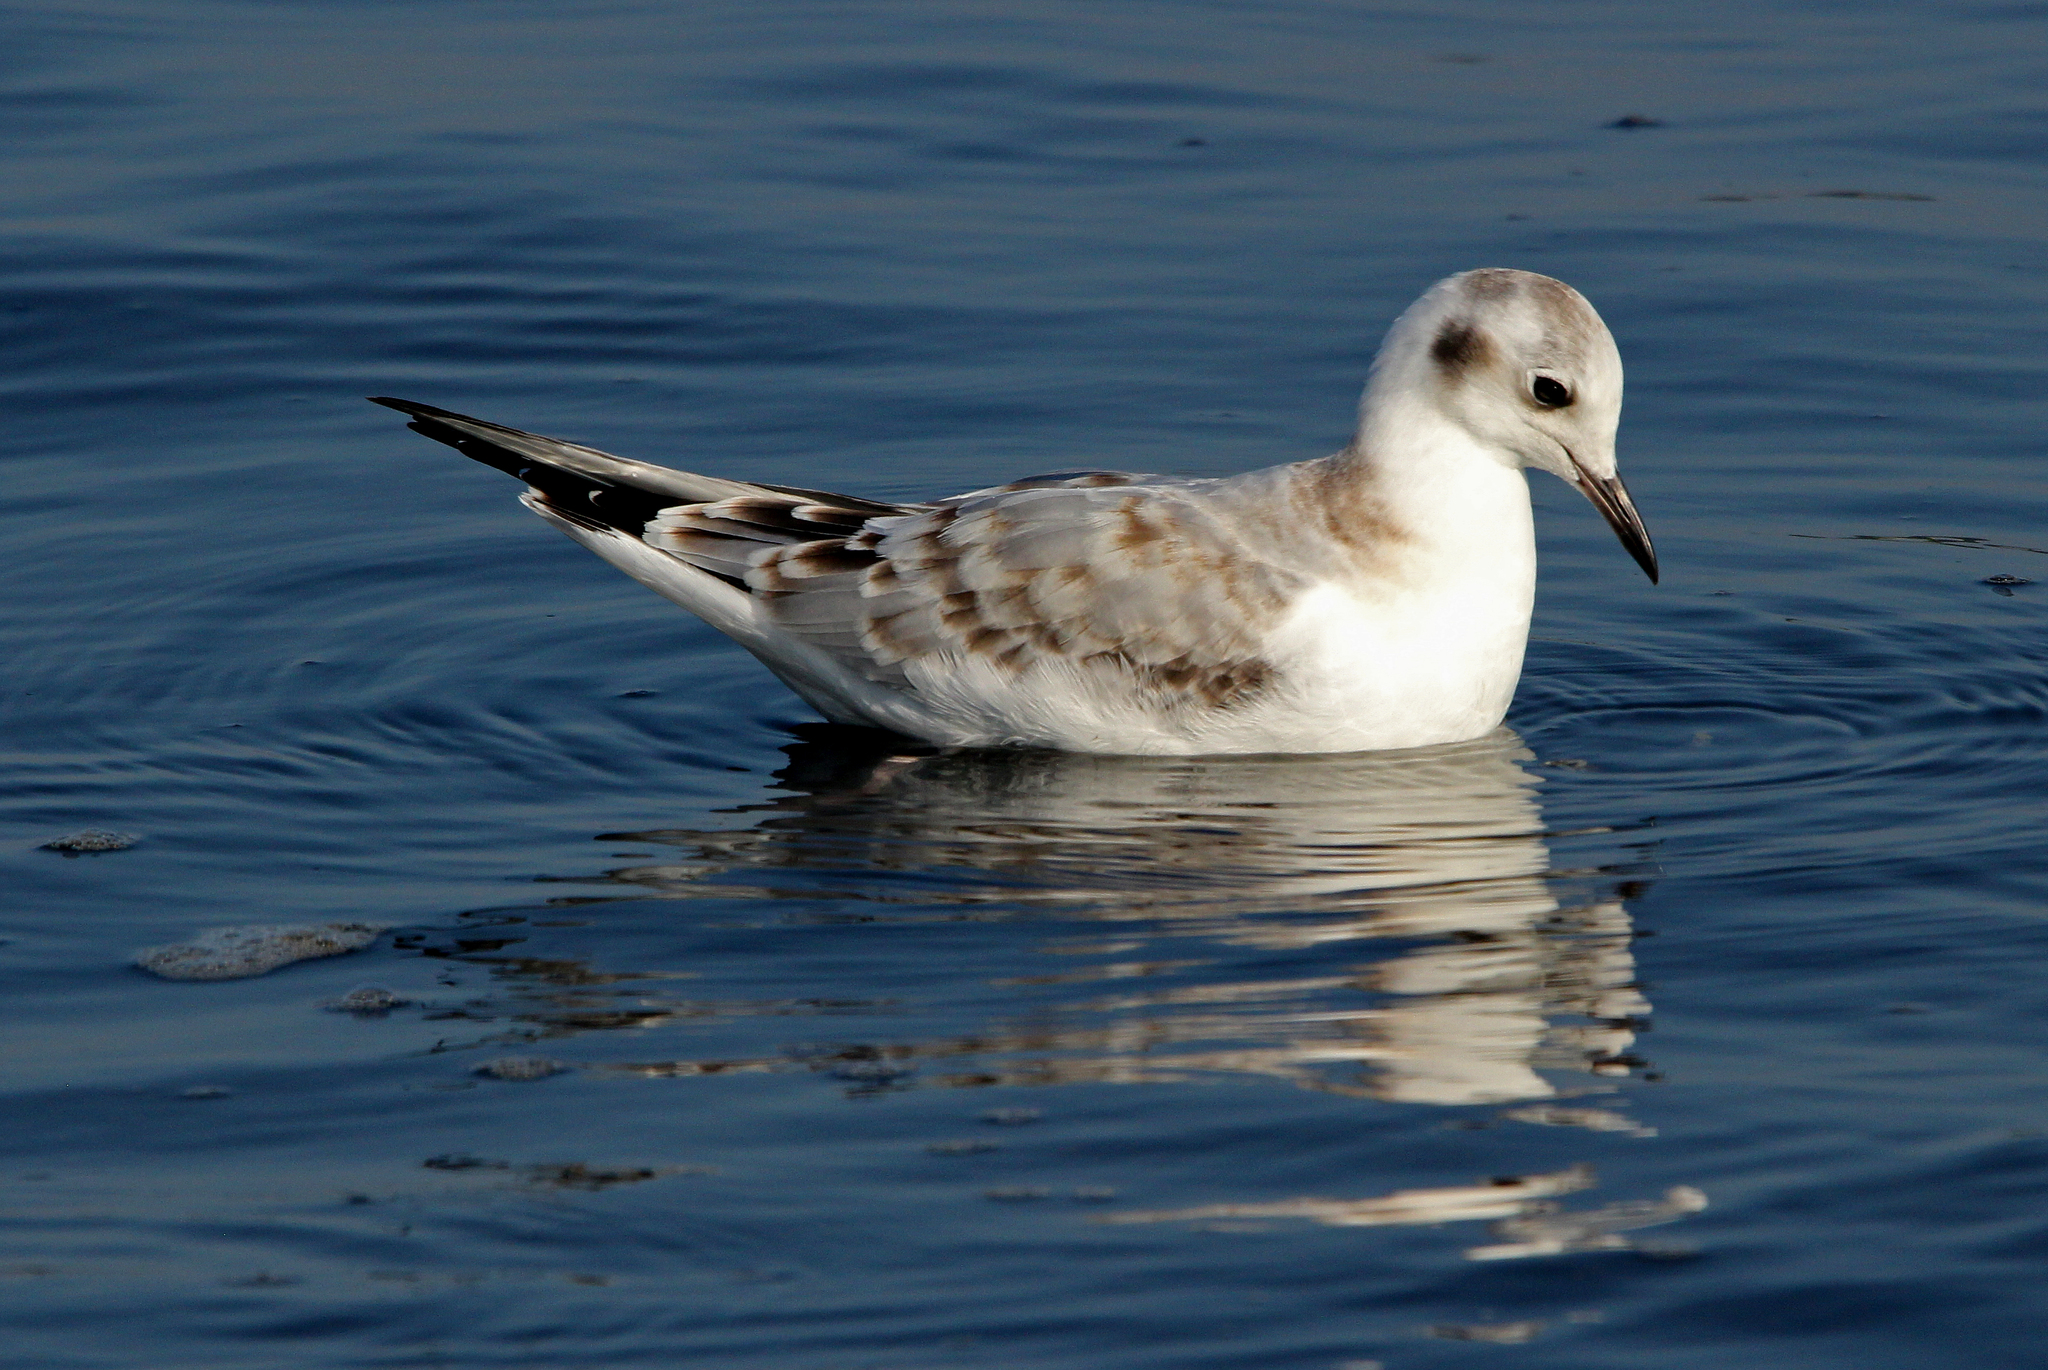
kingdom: Animalia
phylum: Chordata
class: Aves
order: Charadriiformes
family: Laridae
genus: Chroicocephalus
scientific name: Chroicocephalus philadelphia
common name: Bonaparte's gull
